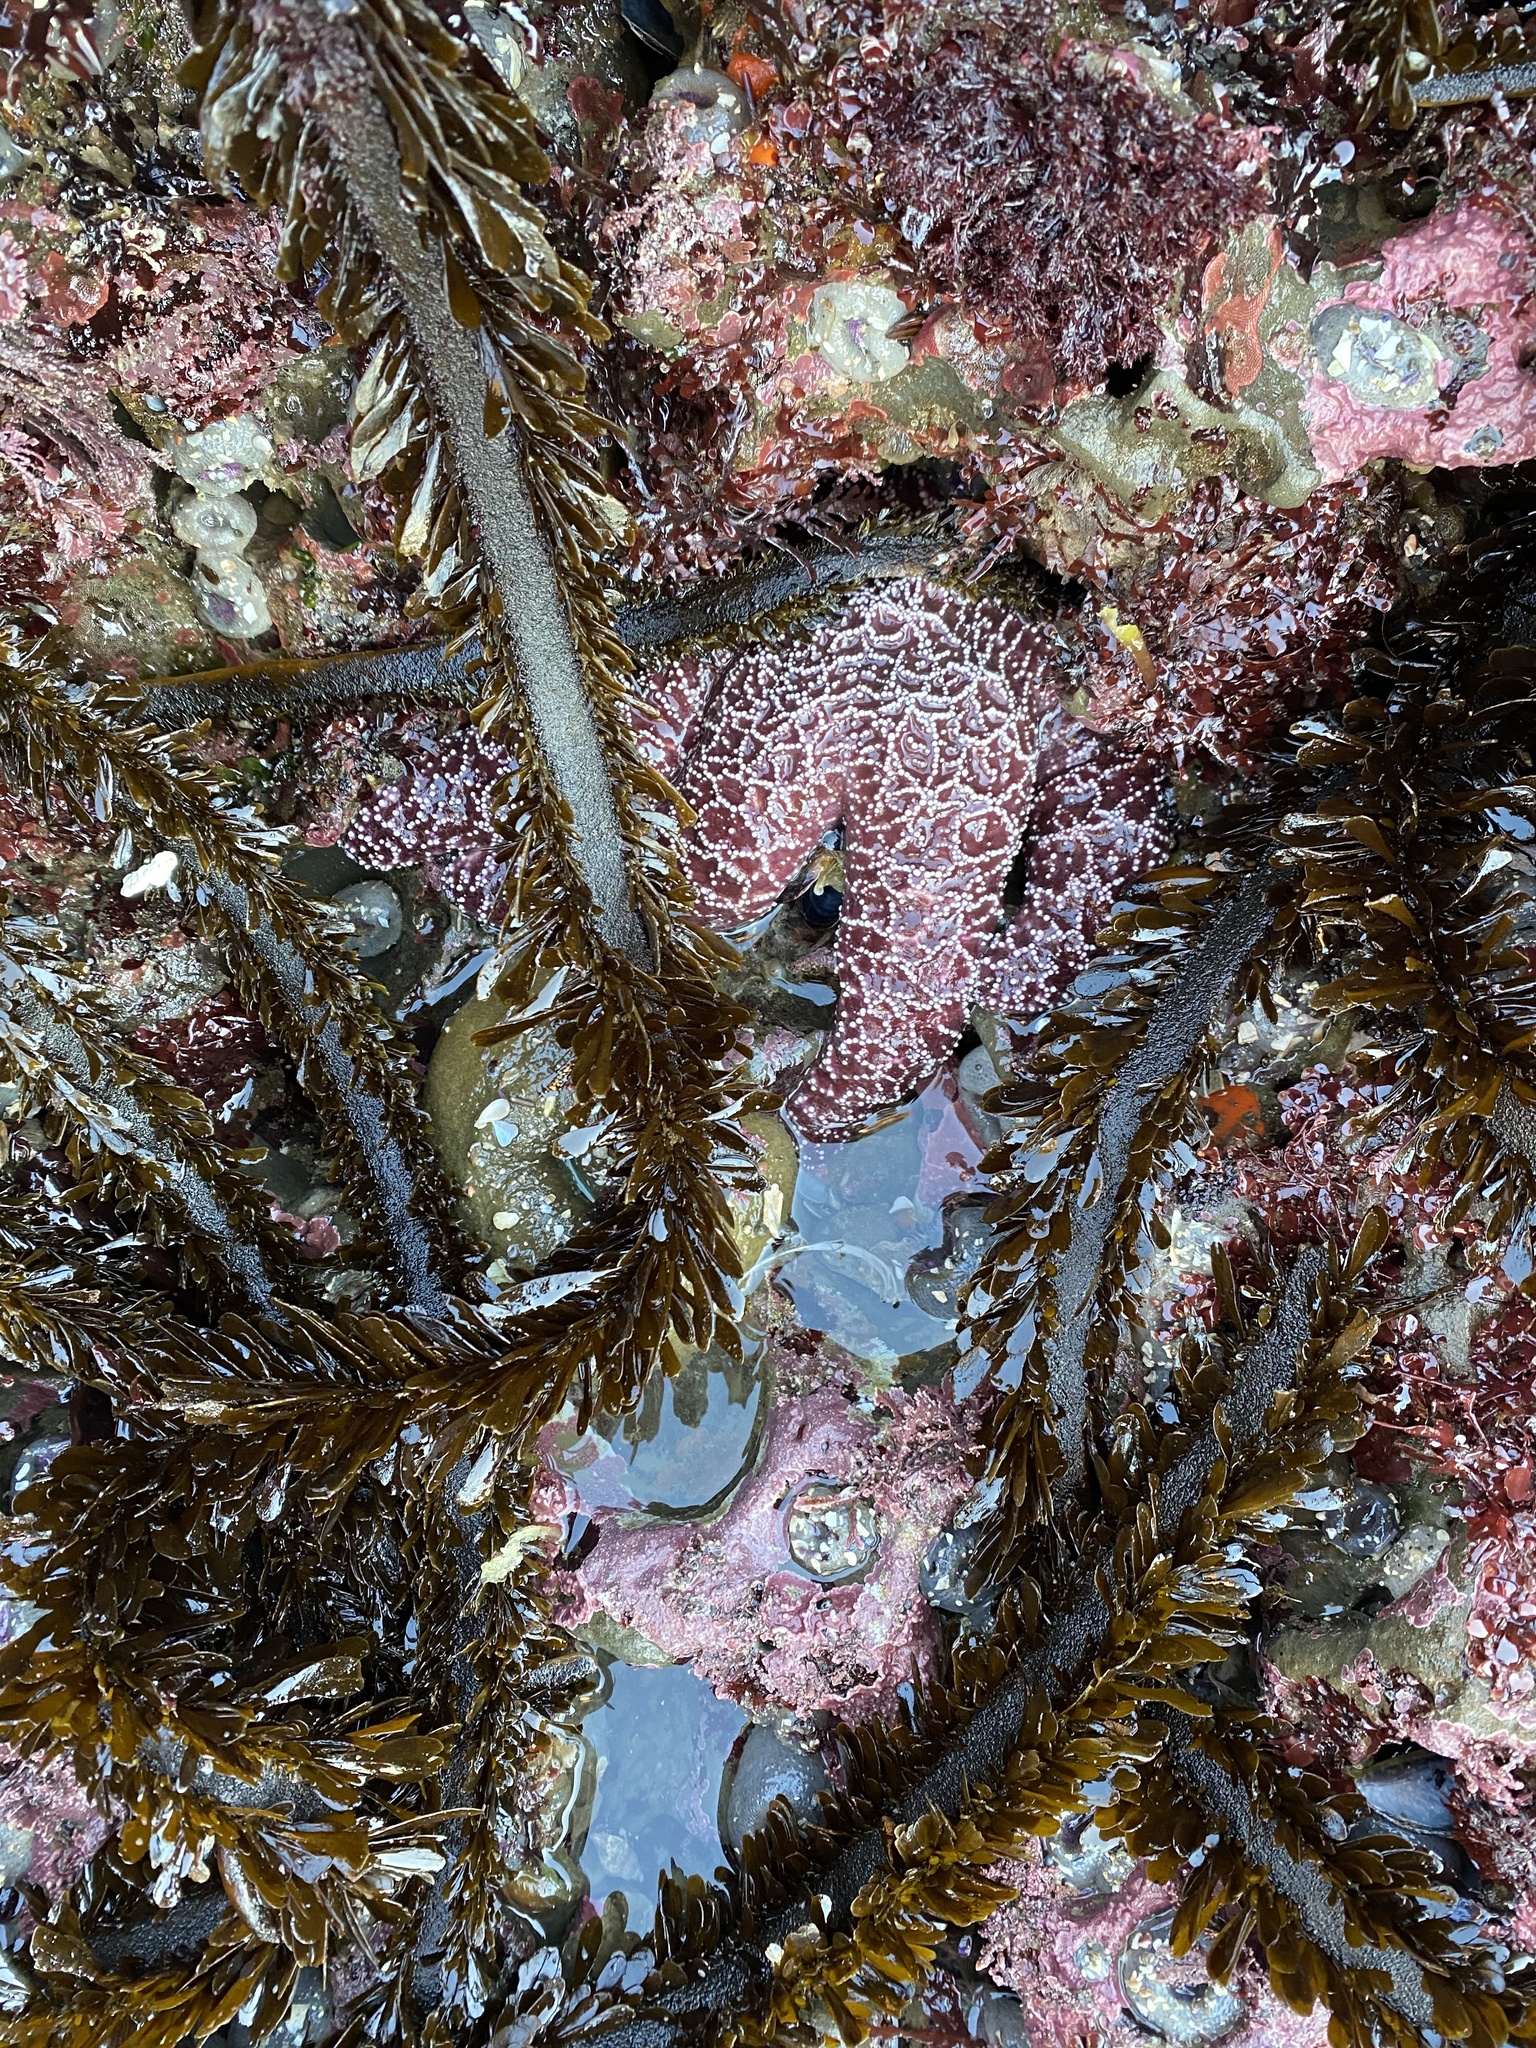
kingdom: Animalia
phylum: Echinodermata
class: Asteroidea
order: Forcipulatida
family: Asteriidae
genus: Pisaster
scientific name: Pisaster ochraceus
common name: Ochre stars
